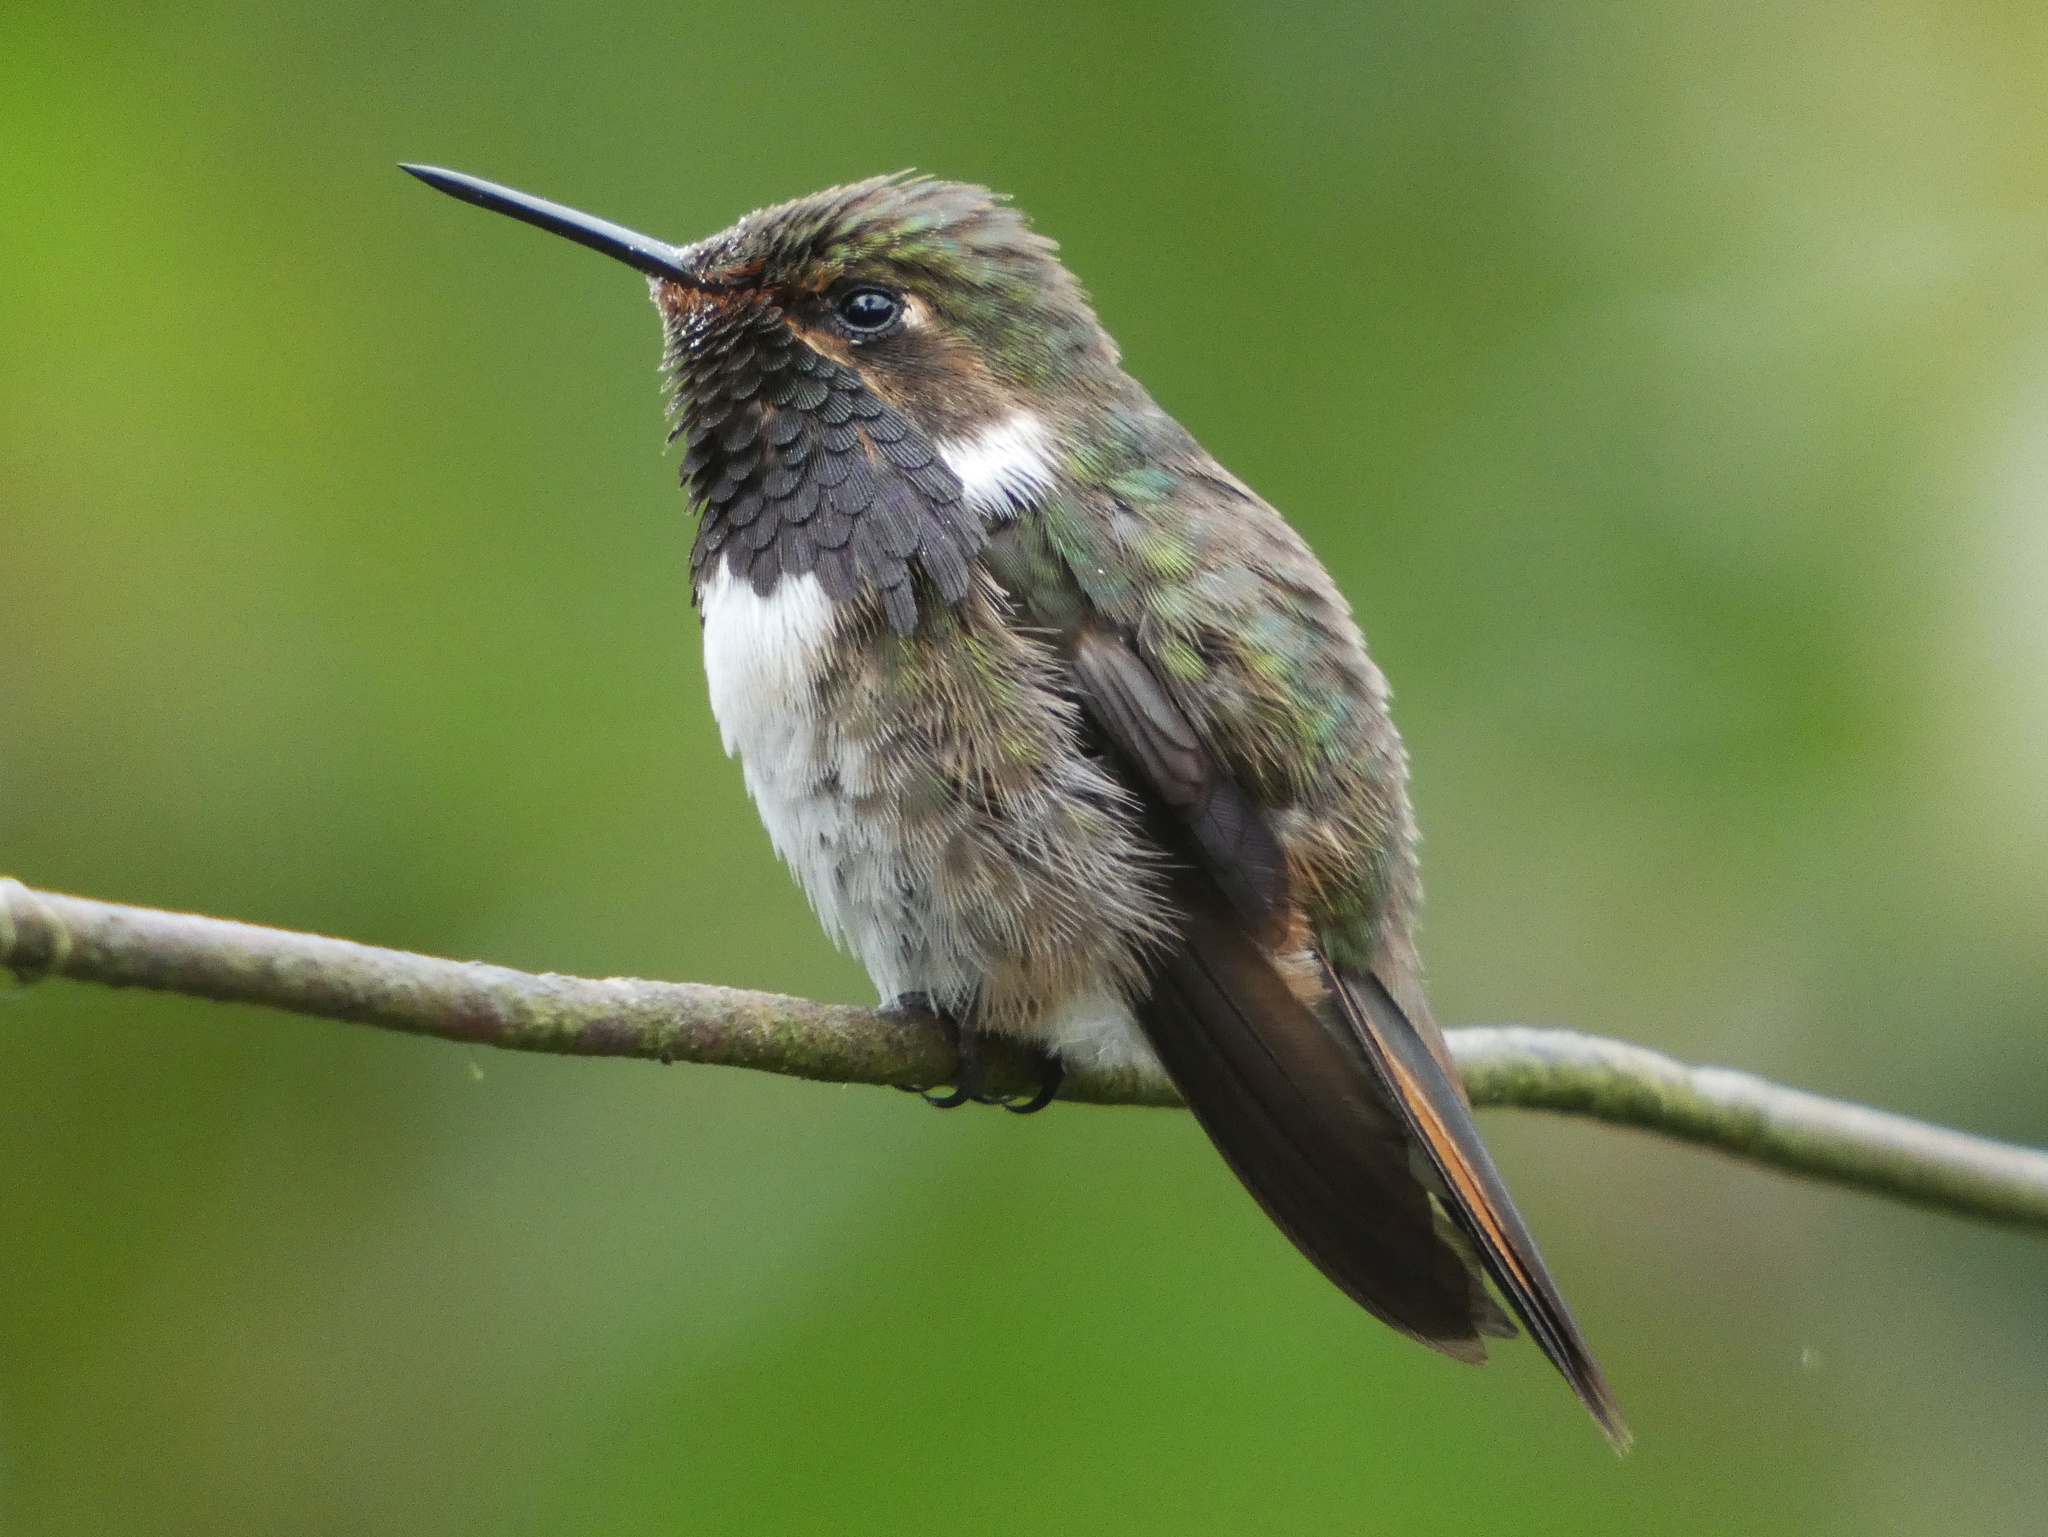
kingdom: Animalia
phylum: Chordata
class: Aves
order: Apodiformes
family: Trochilidae
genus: Selasphorus
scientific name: Selasphorus flammula
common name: Volcano hummingbird
